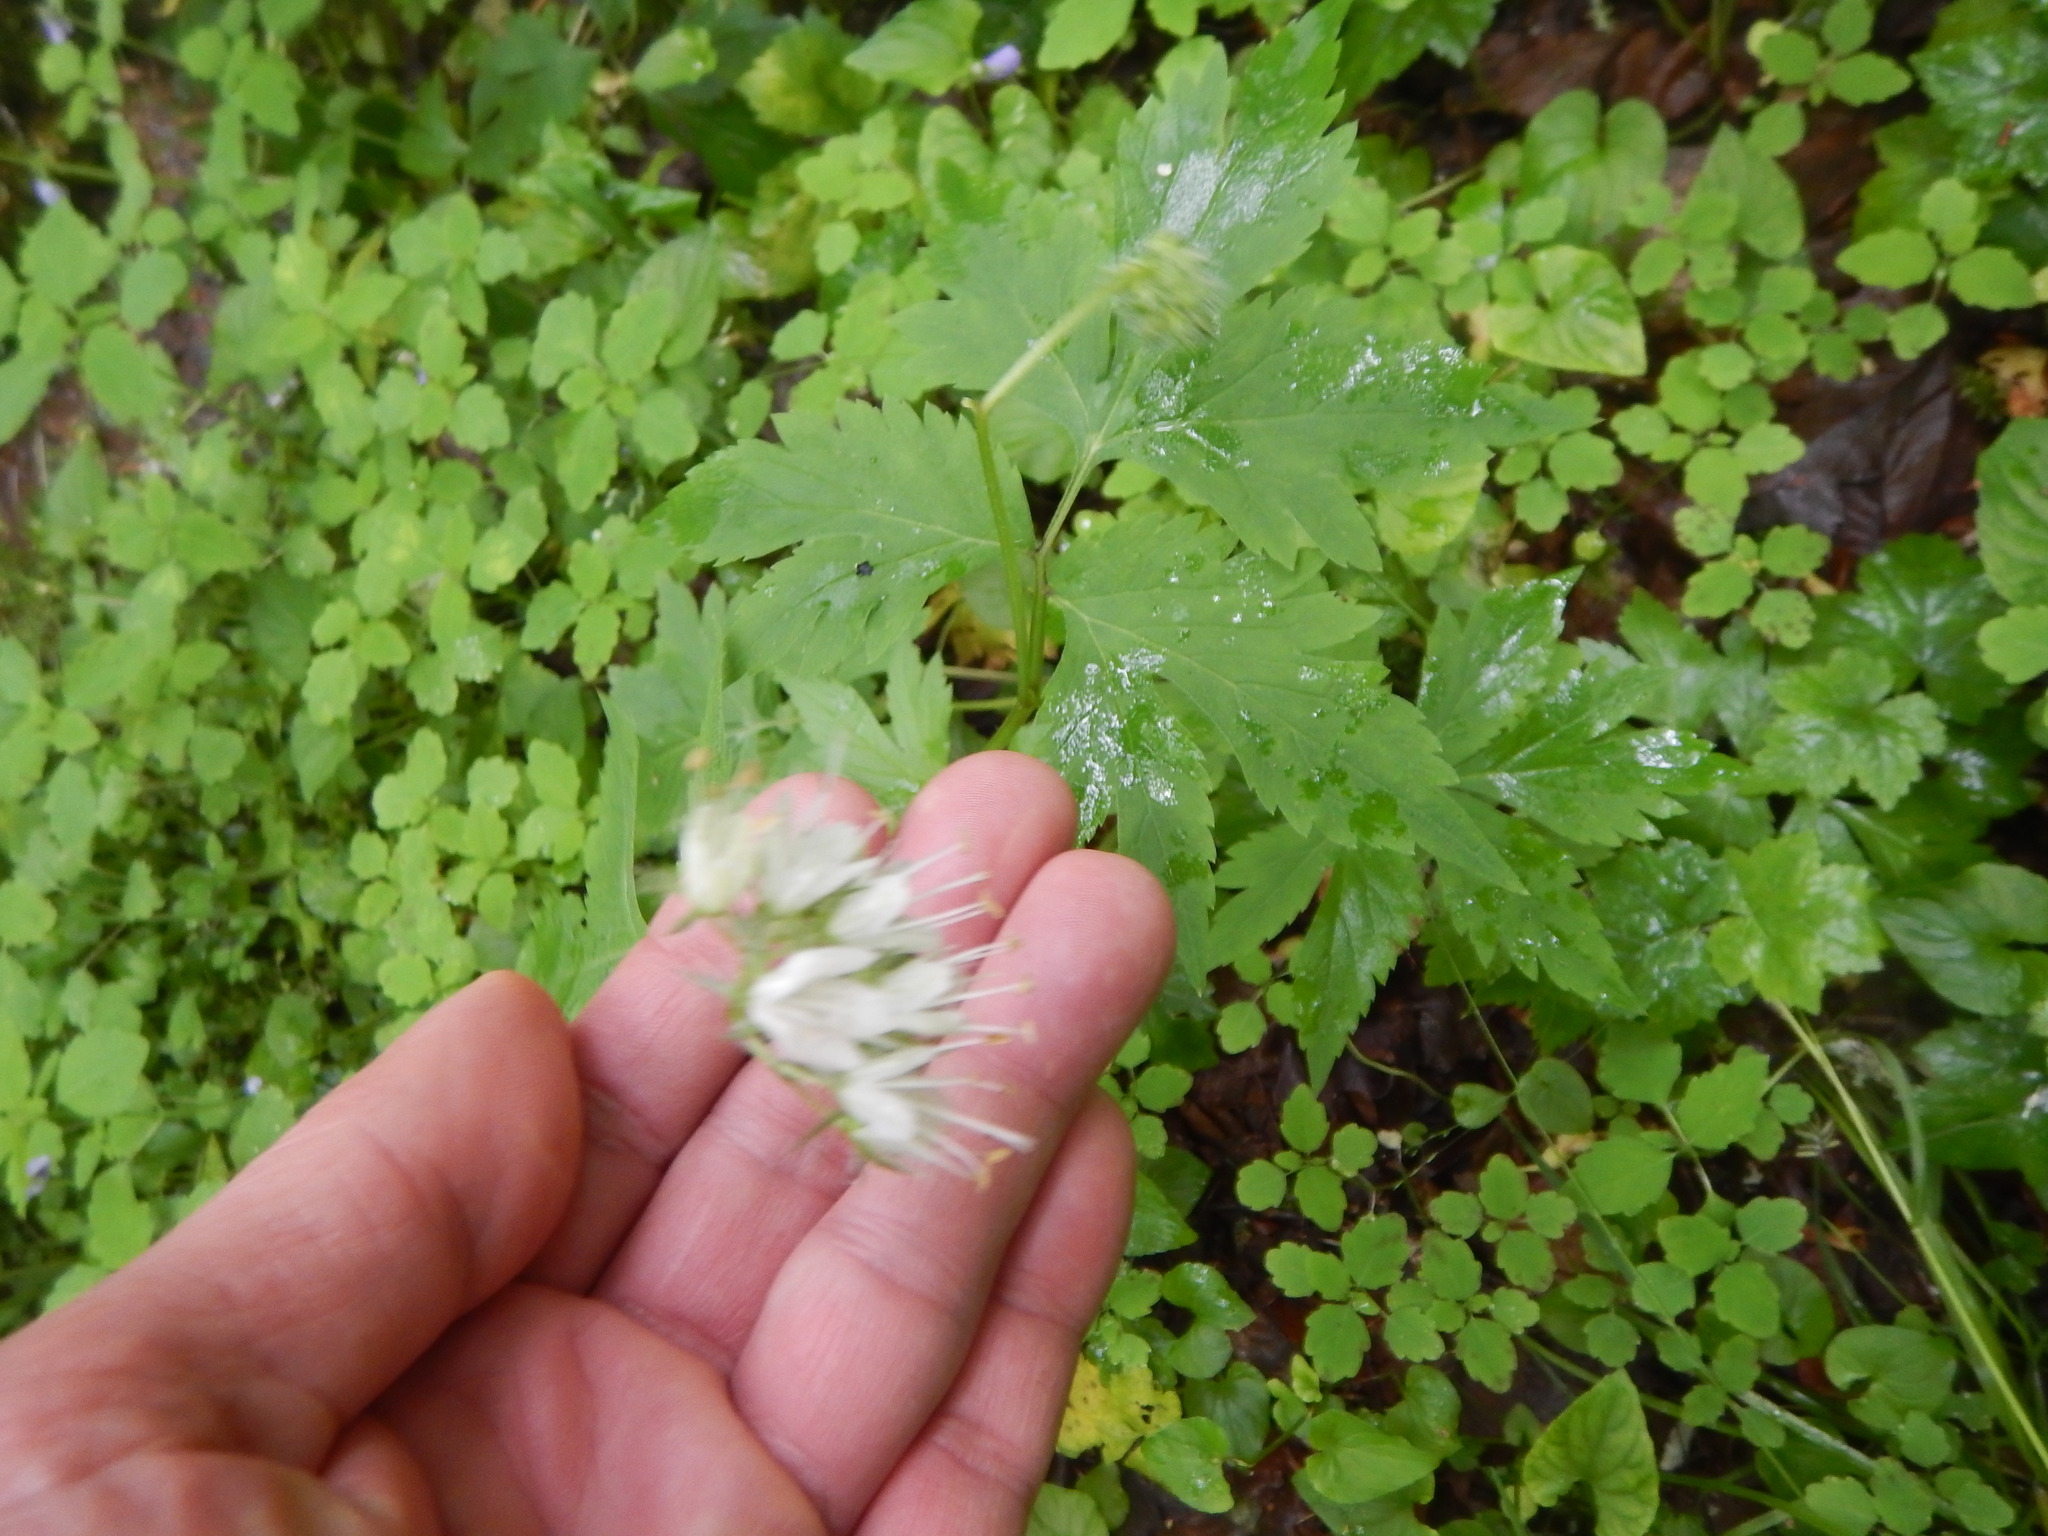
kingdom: Plantae
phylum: Tracheophyta
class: Magnoliopsida
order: Boraginales
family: Hydrophyllaceae
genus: Hydrophyllum
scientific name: Hydrophyllum virginianum
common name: Virginia waterleaf
